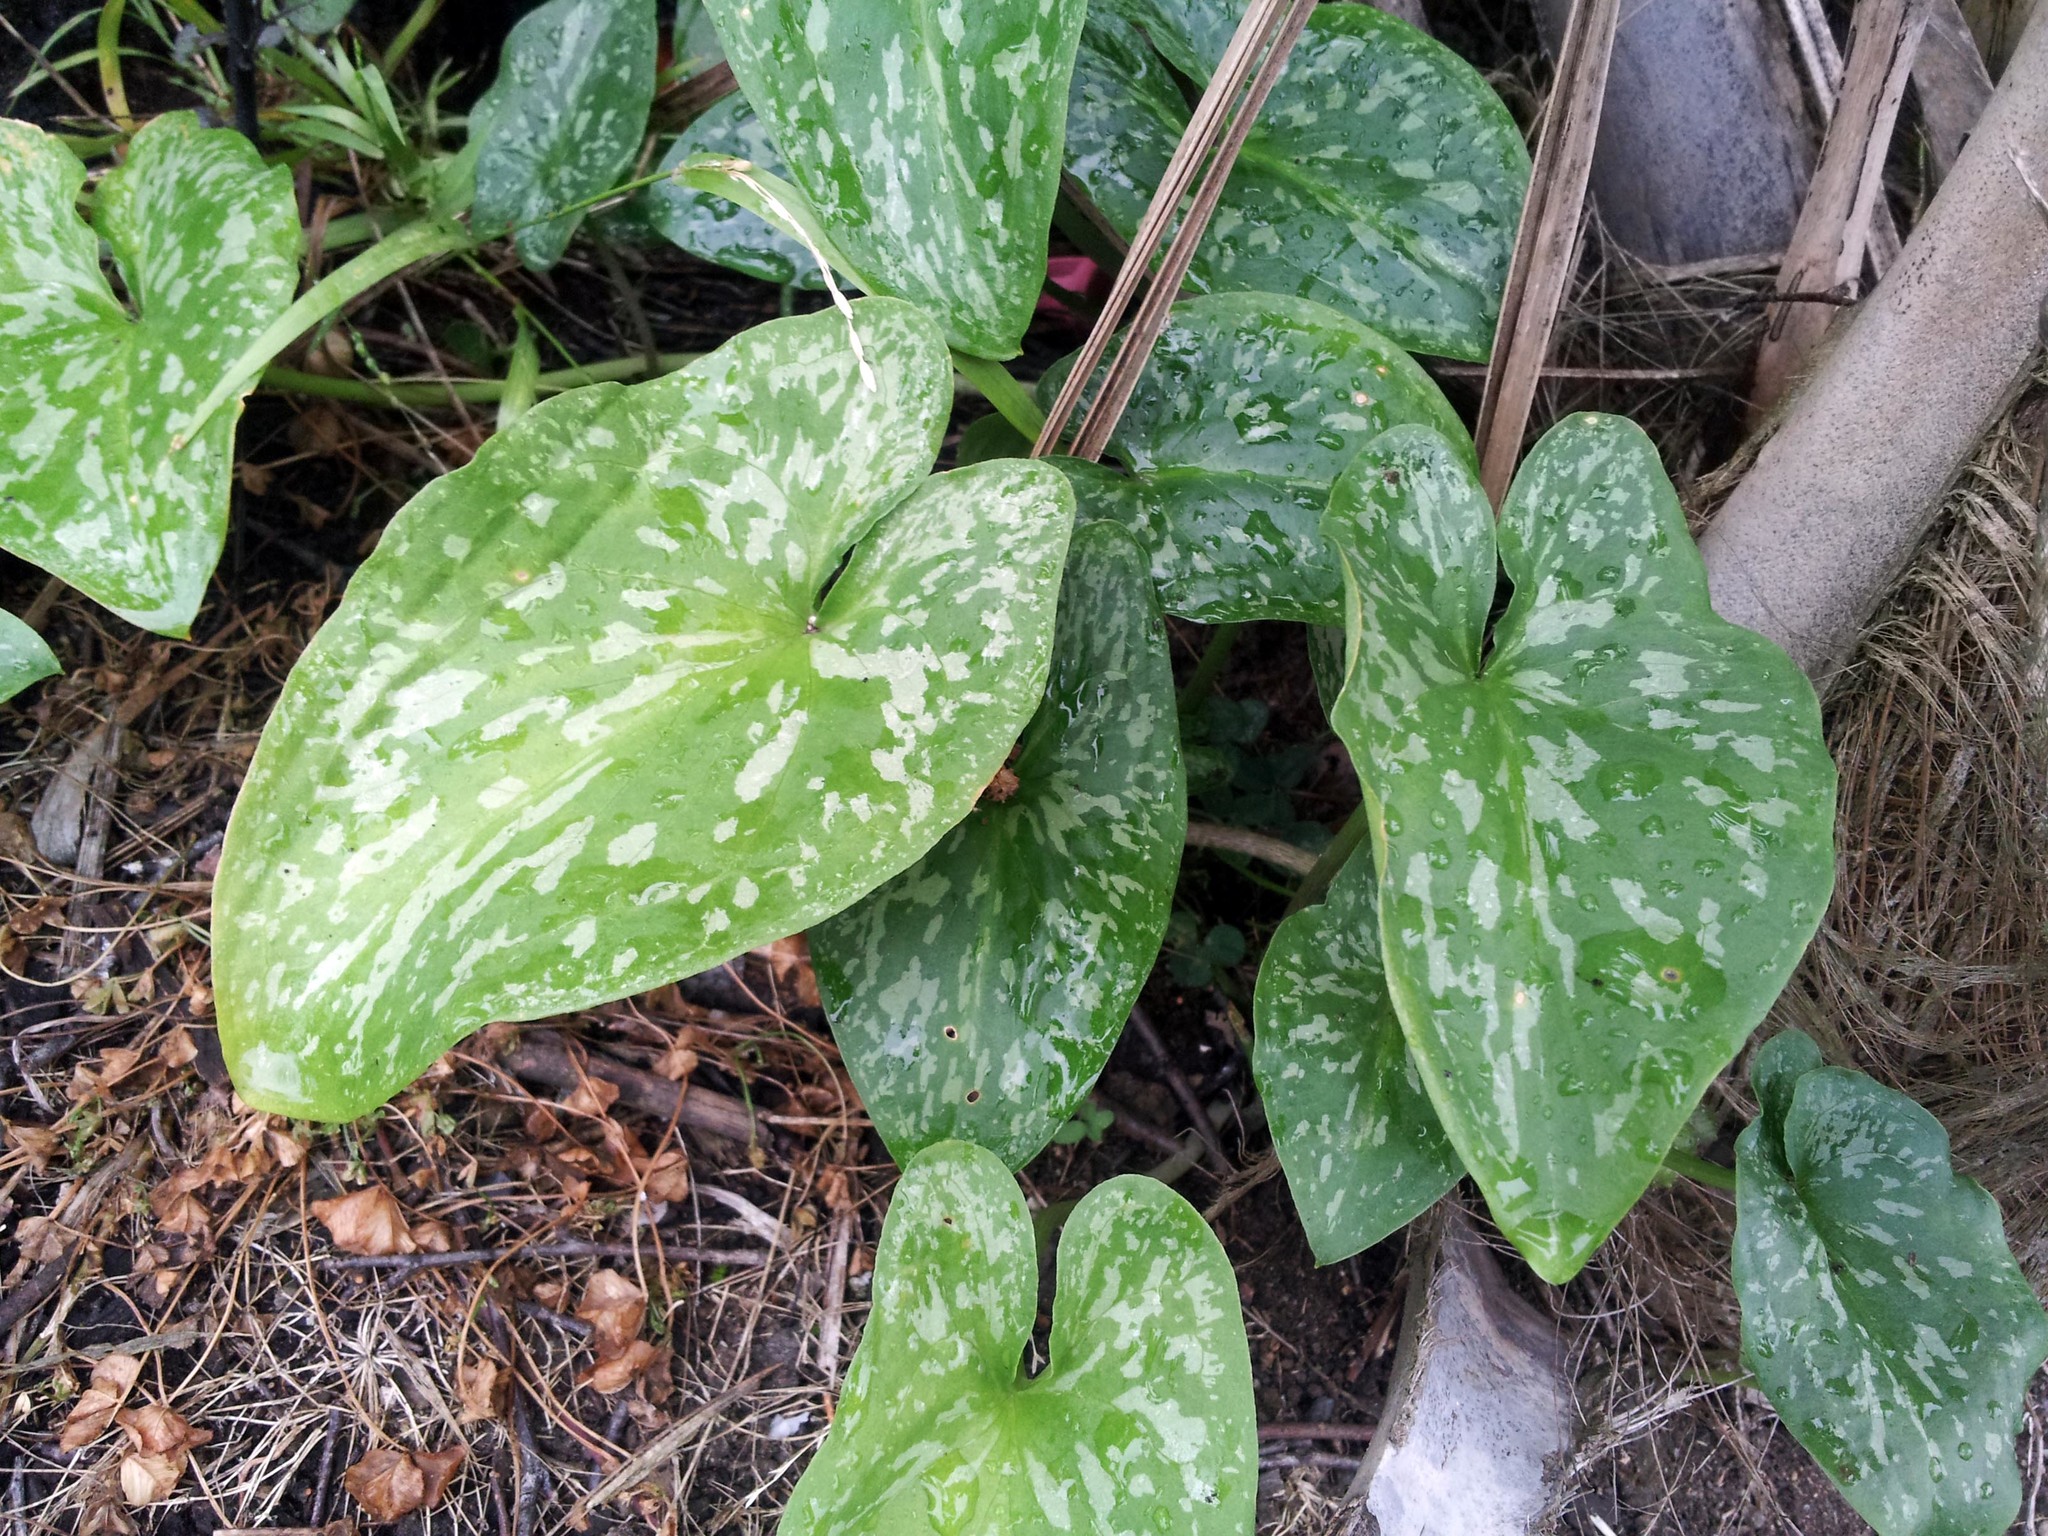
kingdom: Plantae
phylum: Tracheophyta
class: Liliopsida
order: Alismatales
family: Araceae
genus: Arisarum
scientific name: Arisarum vulgare
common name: Common arisarum
